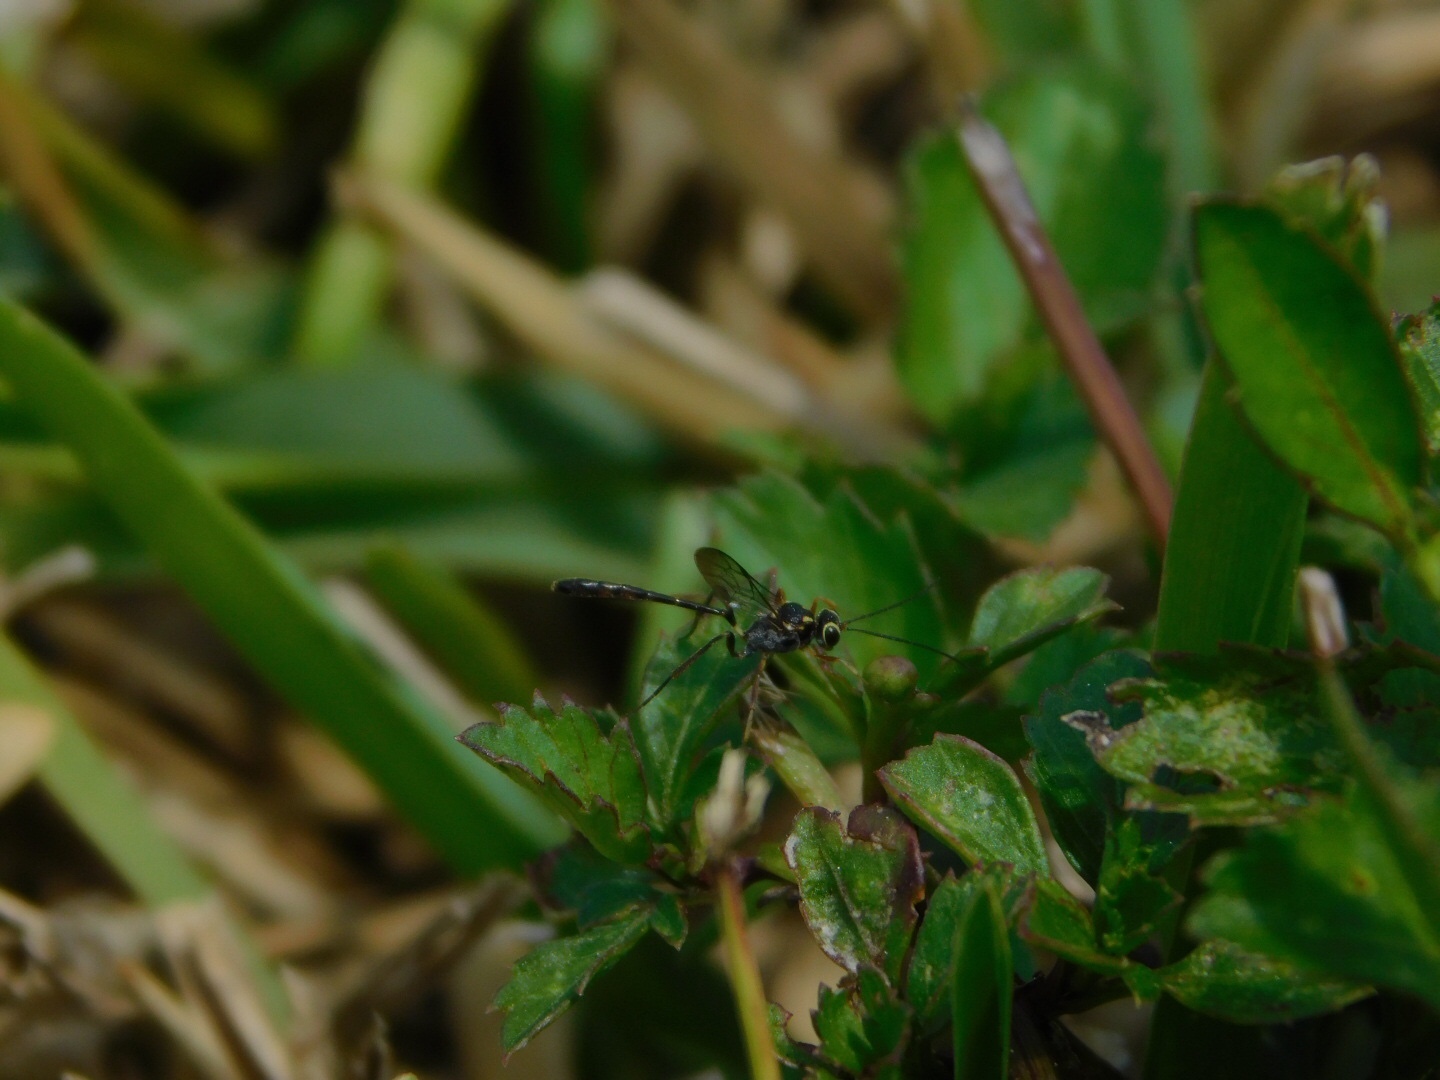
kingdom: Animalia
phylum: Arthropoda
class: Insecta
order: Hymenoptera
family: Ichneumonidae
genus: Anomalon
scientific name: Anomalon
